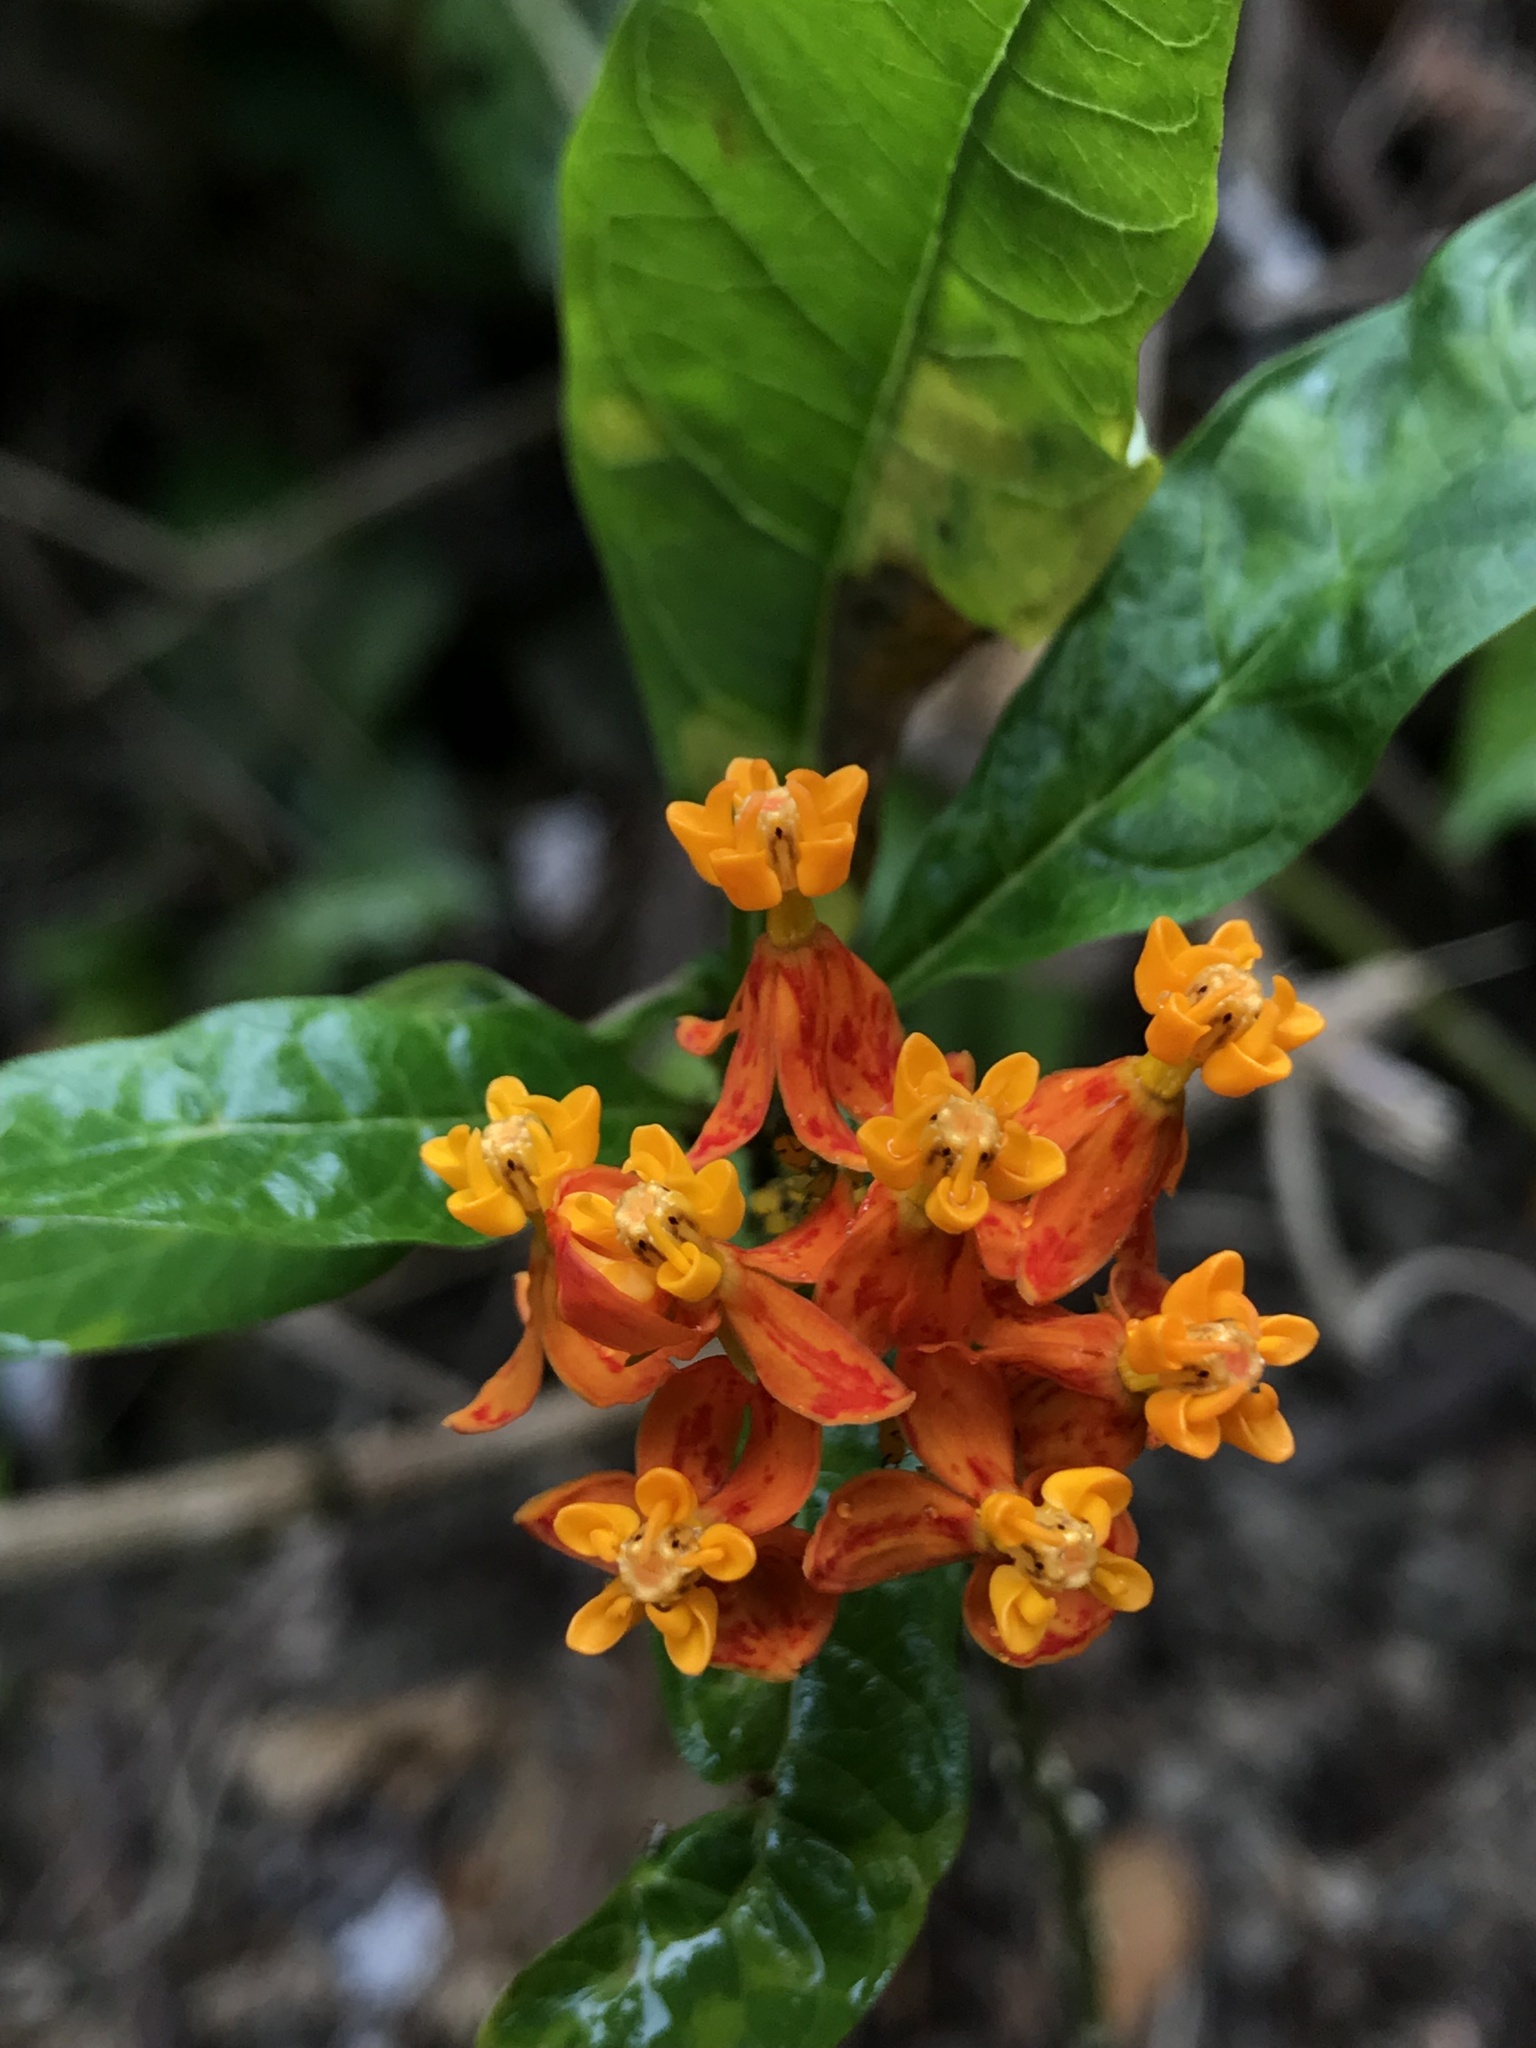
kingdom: Plantae
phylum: Tracheophyta
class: Magnoliopsida
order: Gentianales
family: Apocynaceae
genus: Asclepias
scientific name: Asclepias curassavica
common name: Bloodflower
